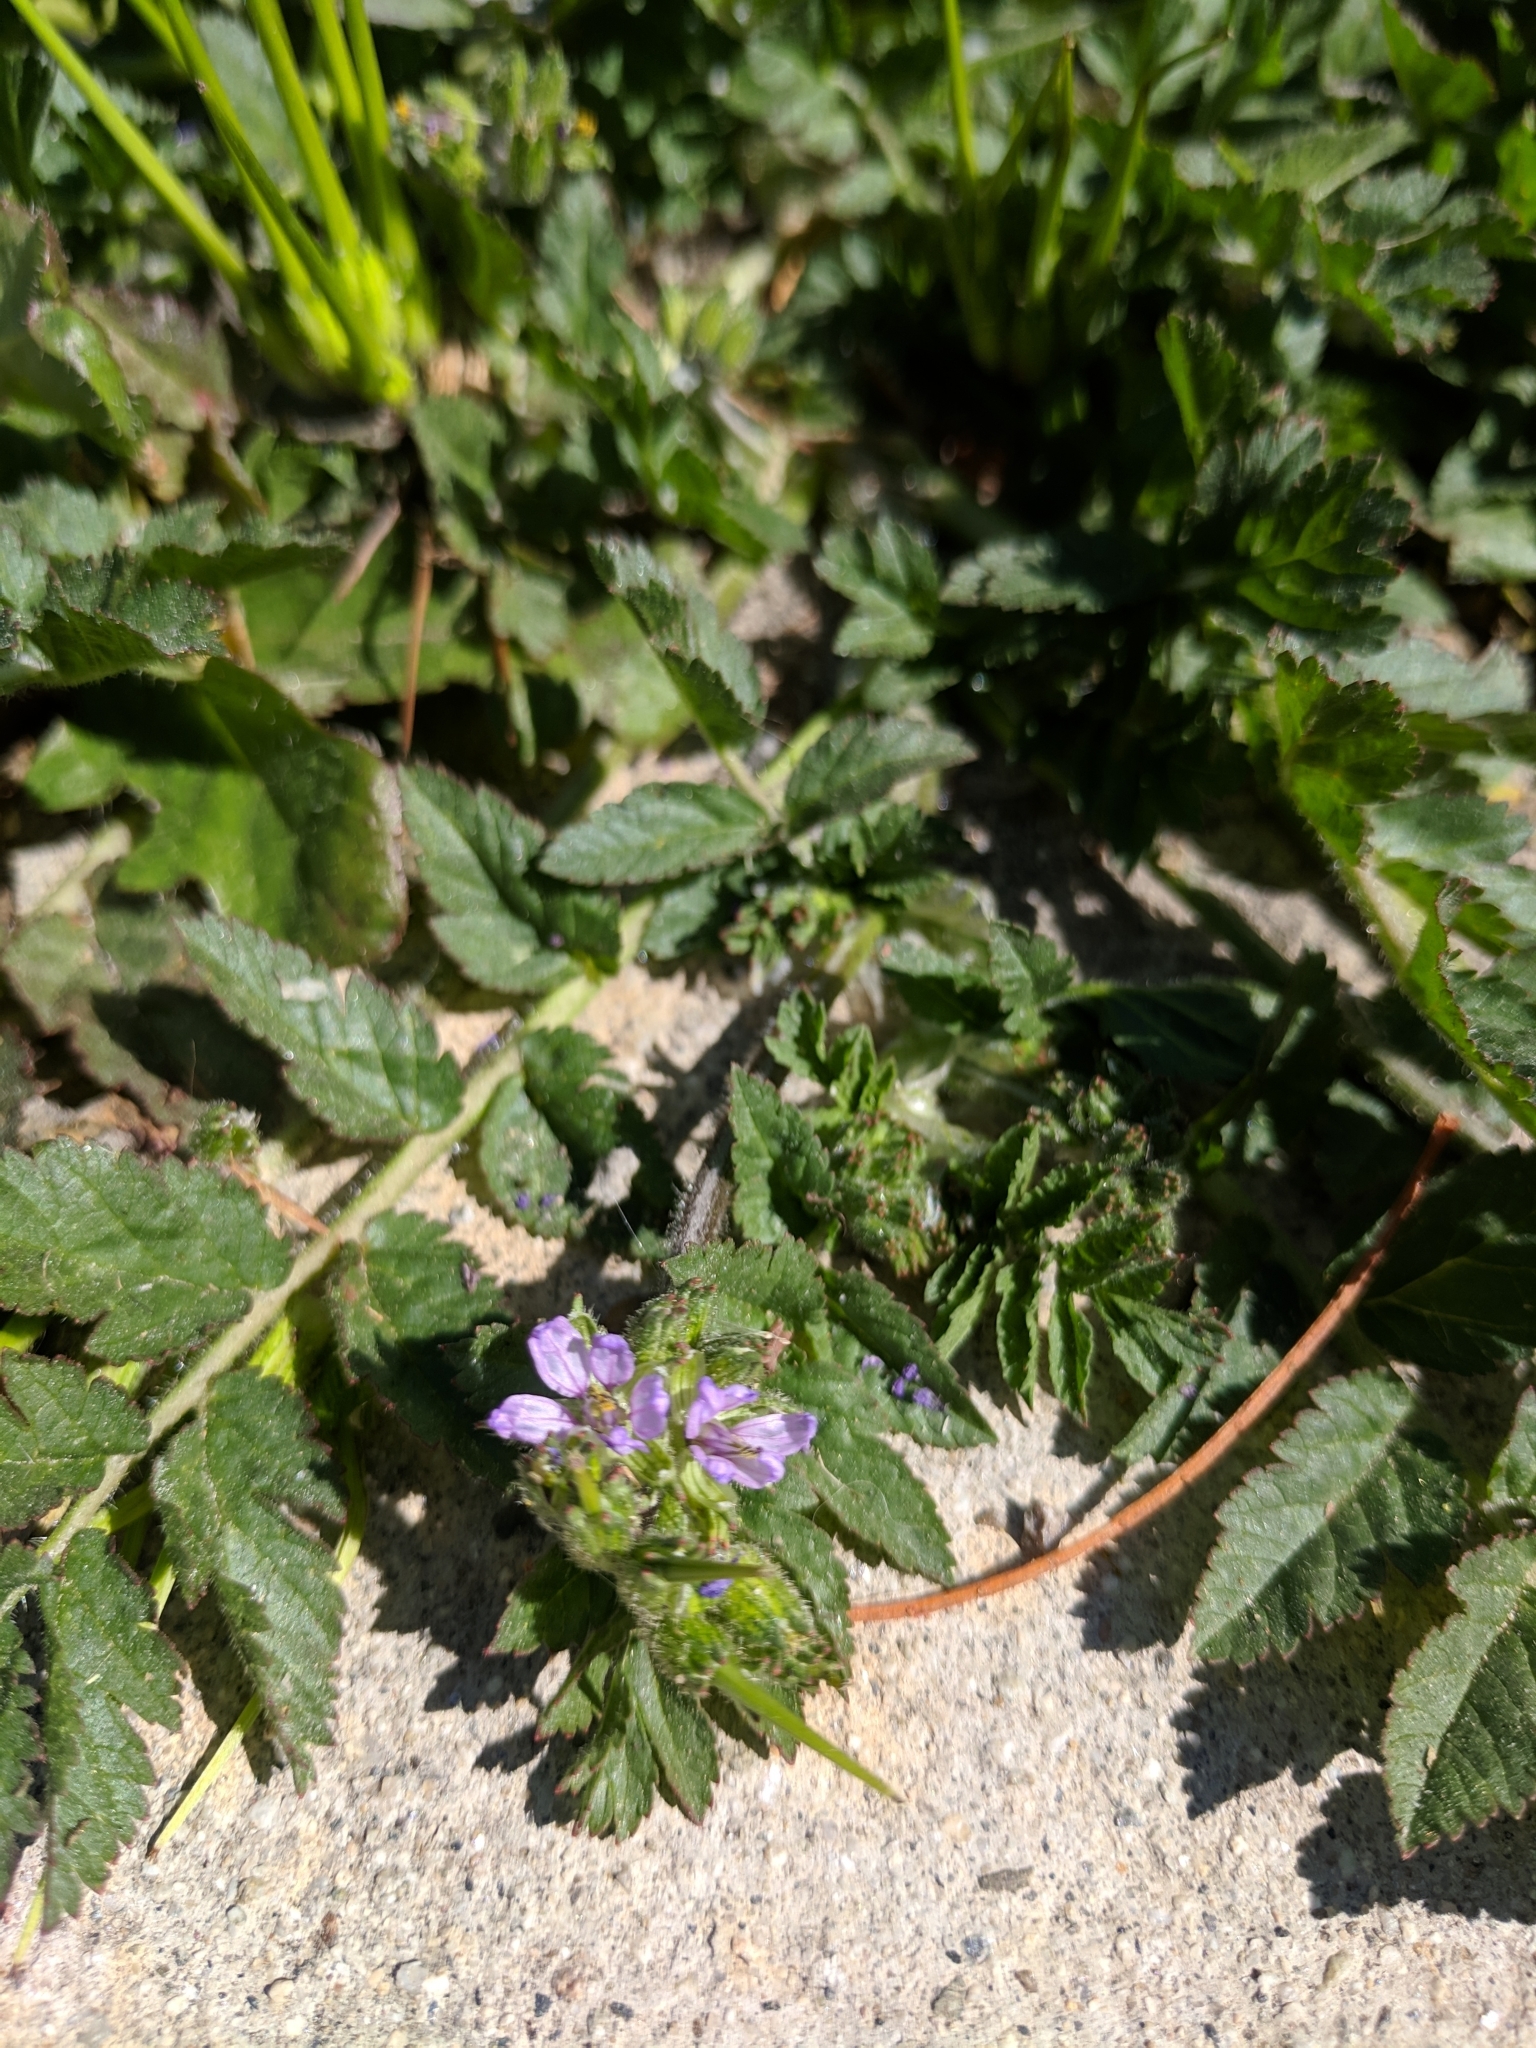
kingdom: Plantae
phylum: Tracheophyta
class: Magnoliopsida
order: Geraniales
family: Geraniaceae
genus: Erodium
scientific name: Erodium moschatum
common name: Musk stork's-bill
